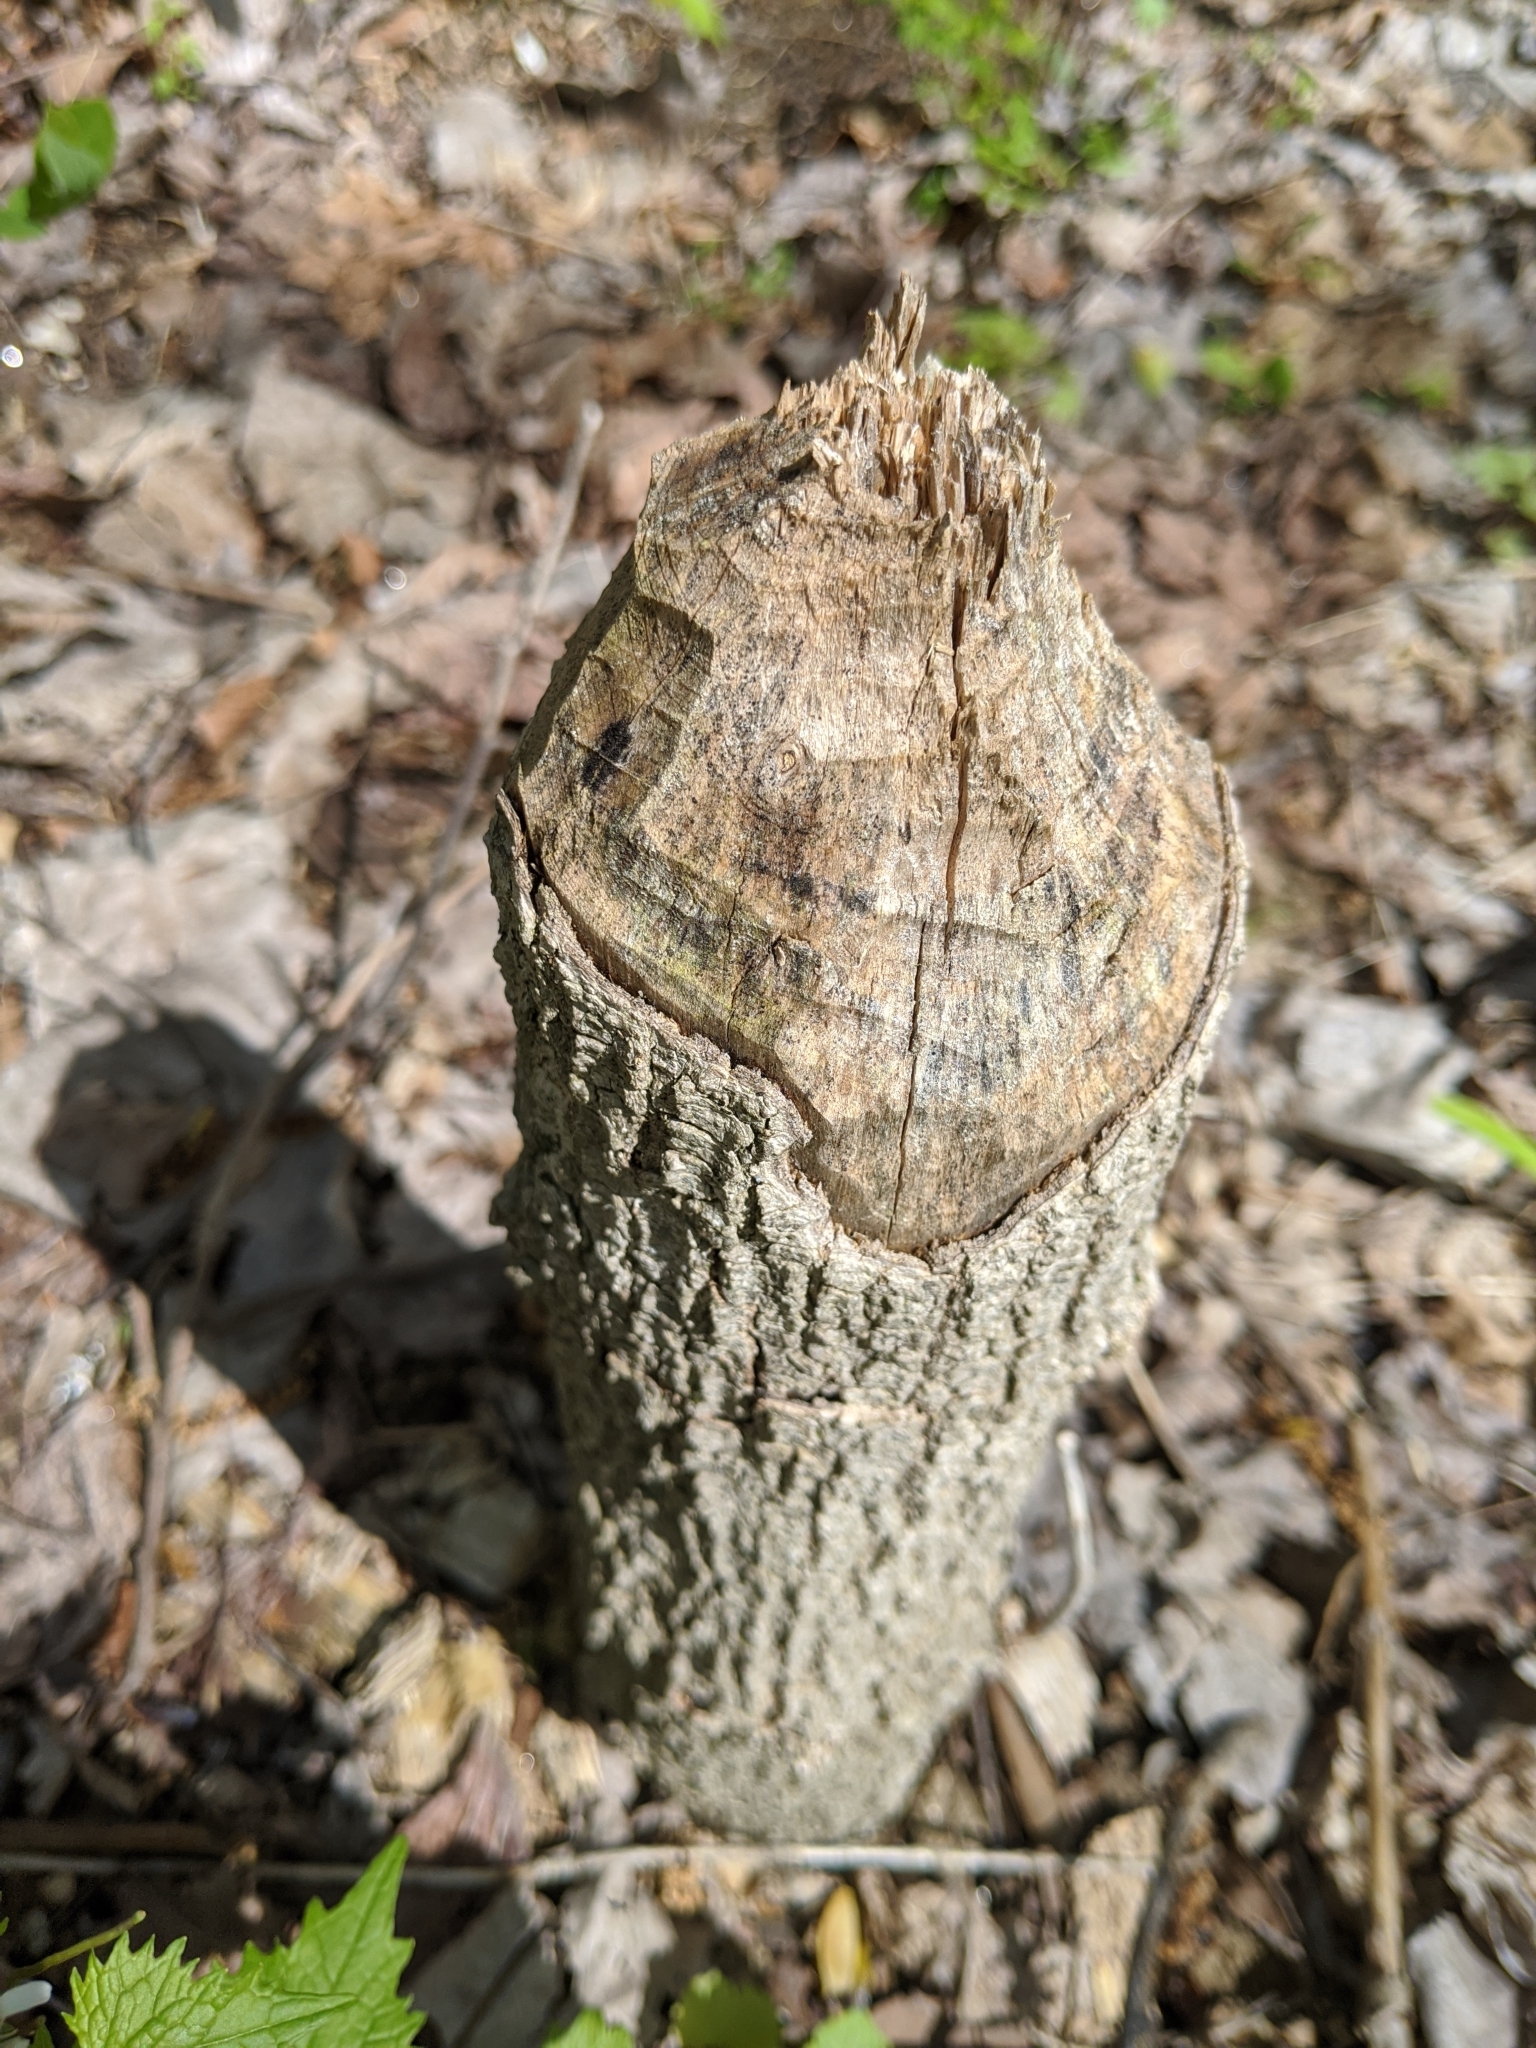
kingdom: Animalia
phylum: Chordata
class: Mammalia
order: Rodentia
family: Castoridae
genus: Castor
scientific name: Castor canadensis
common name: American beaver
